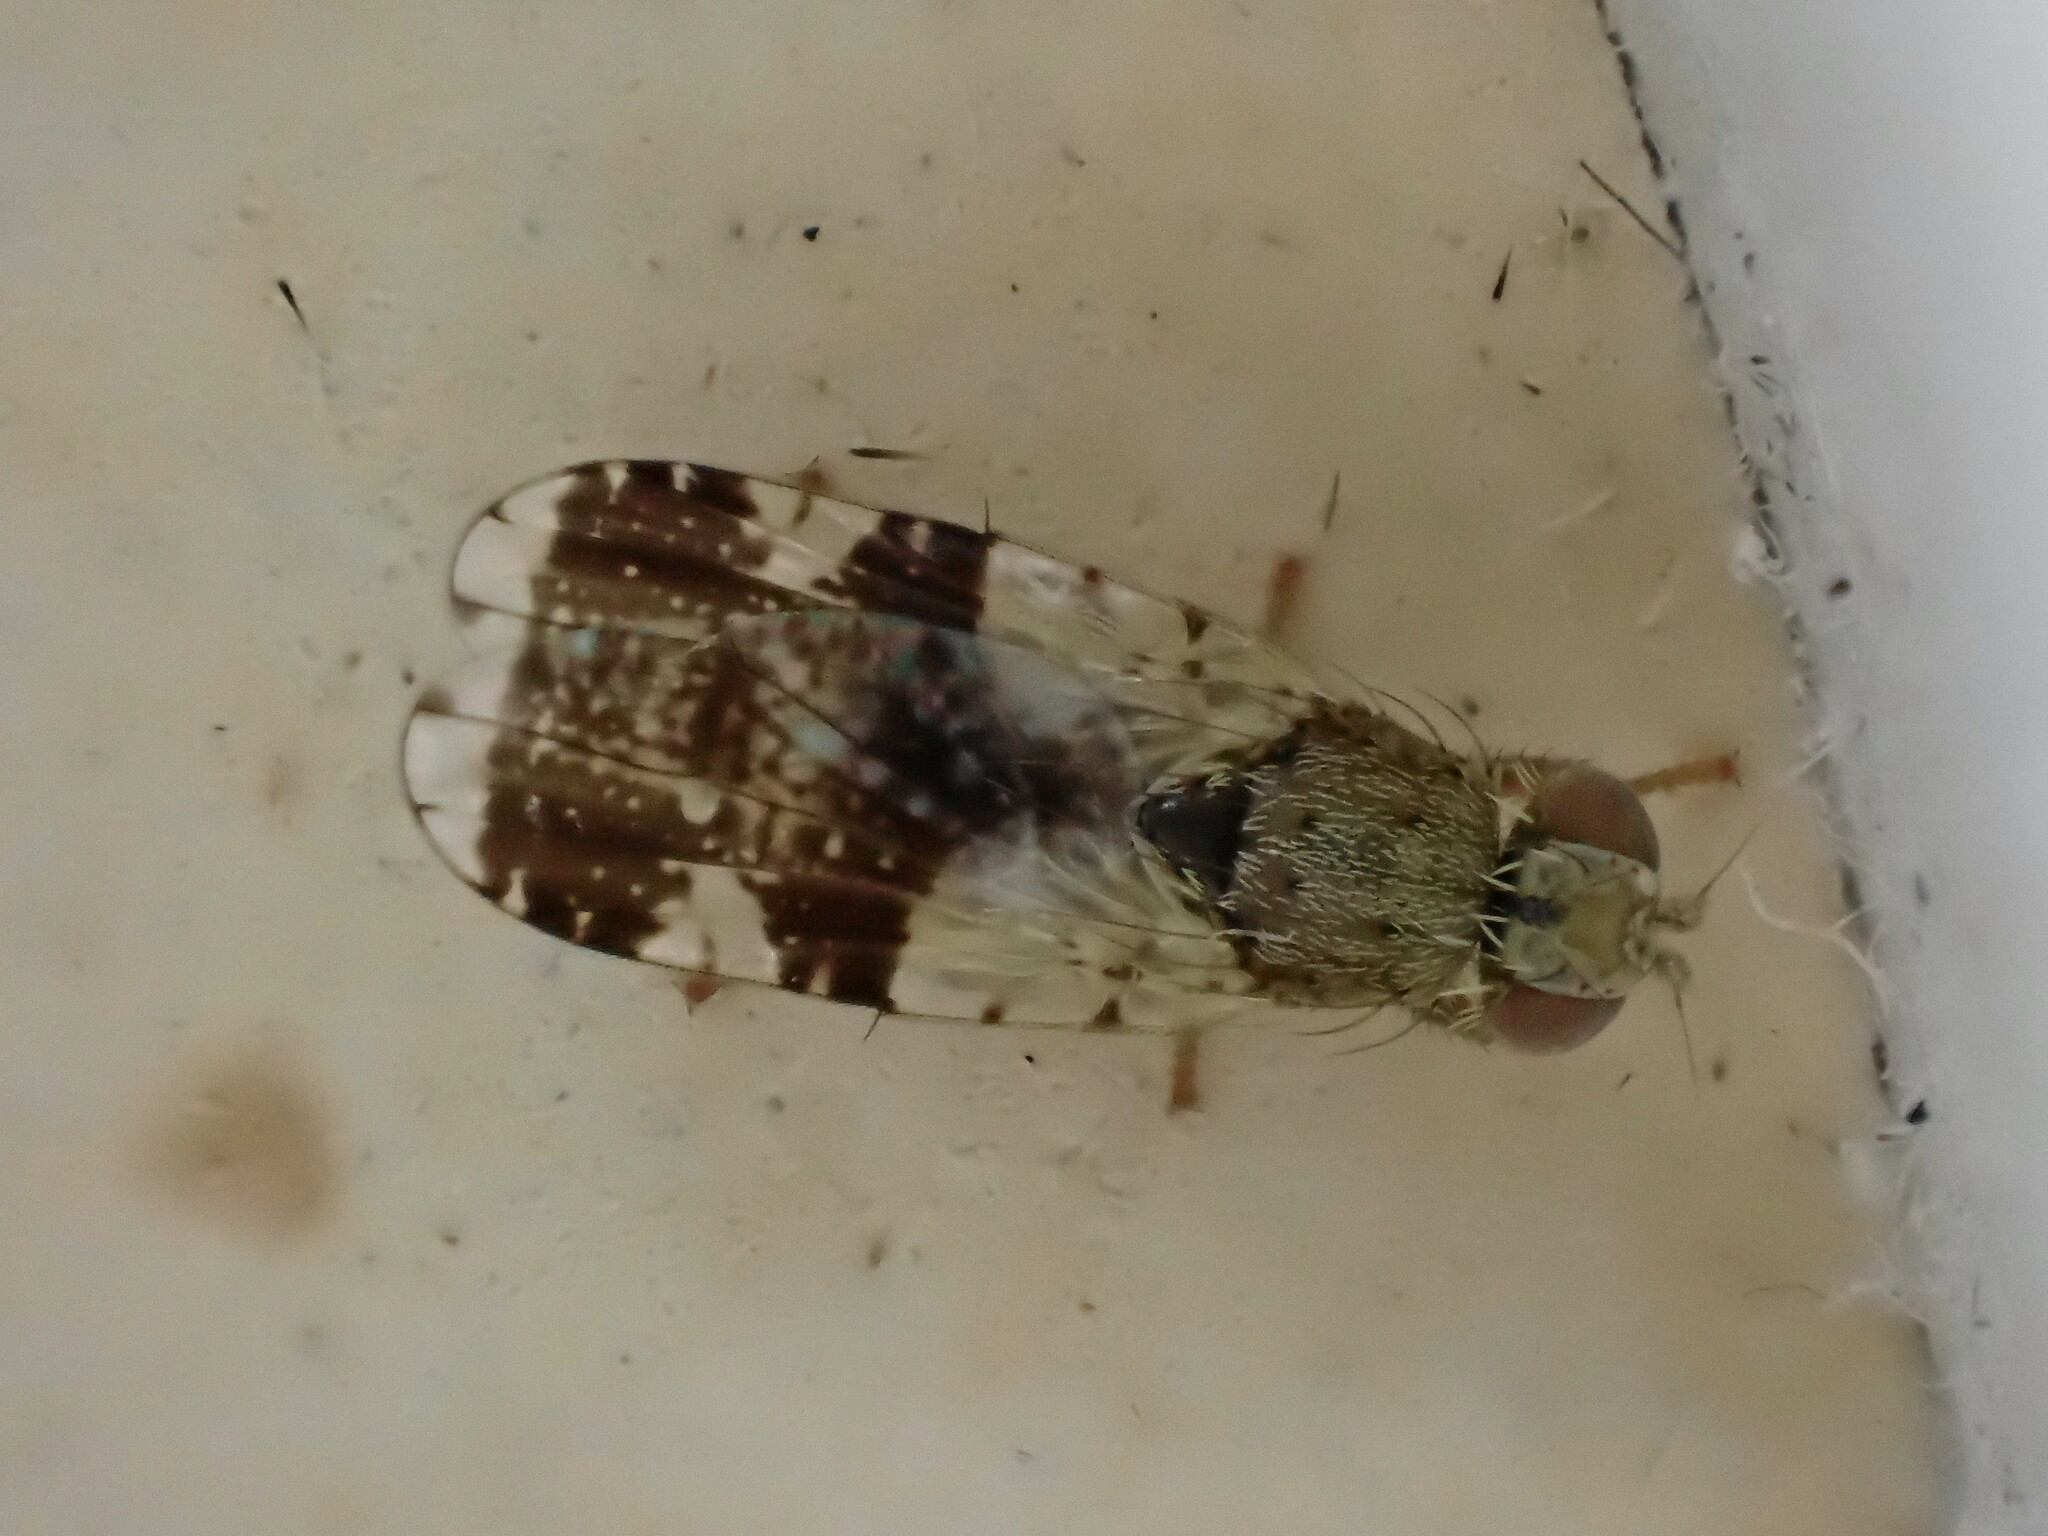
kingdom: Animalia
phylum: Arthropoda
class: Insecta
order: Diptera
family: Tephritidae
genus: Tephritis
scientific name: Tephritis formosa
